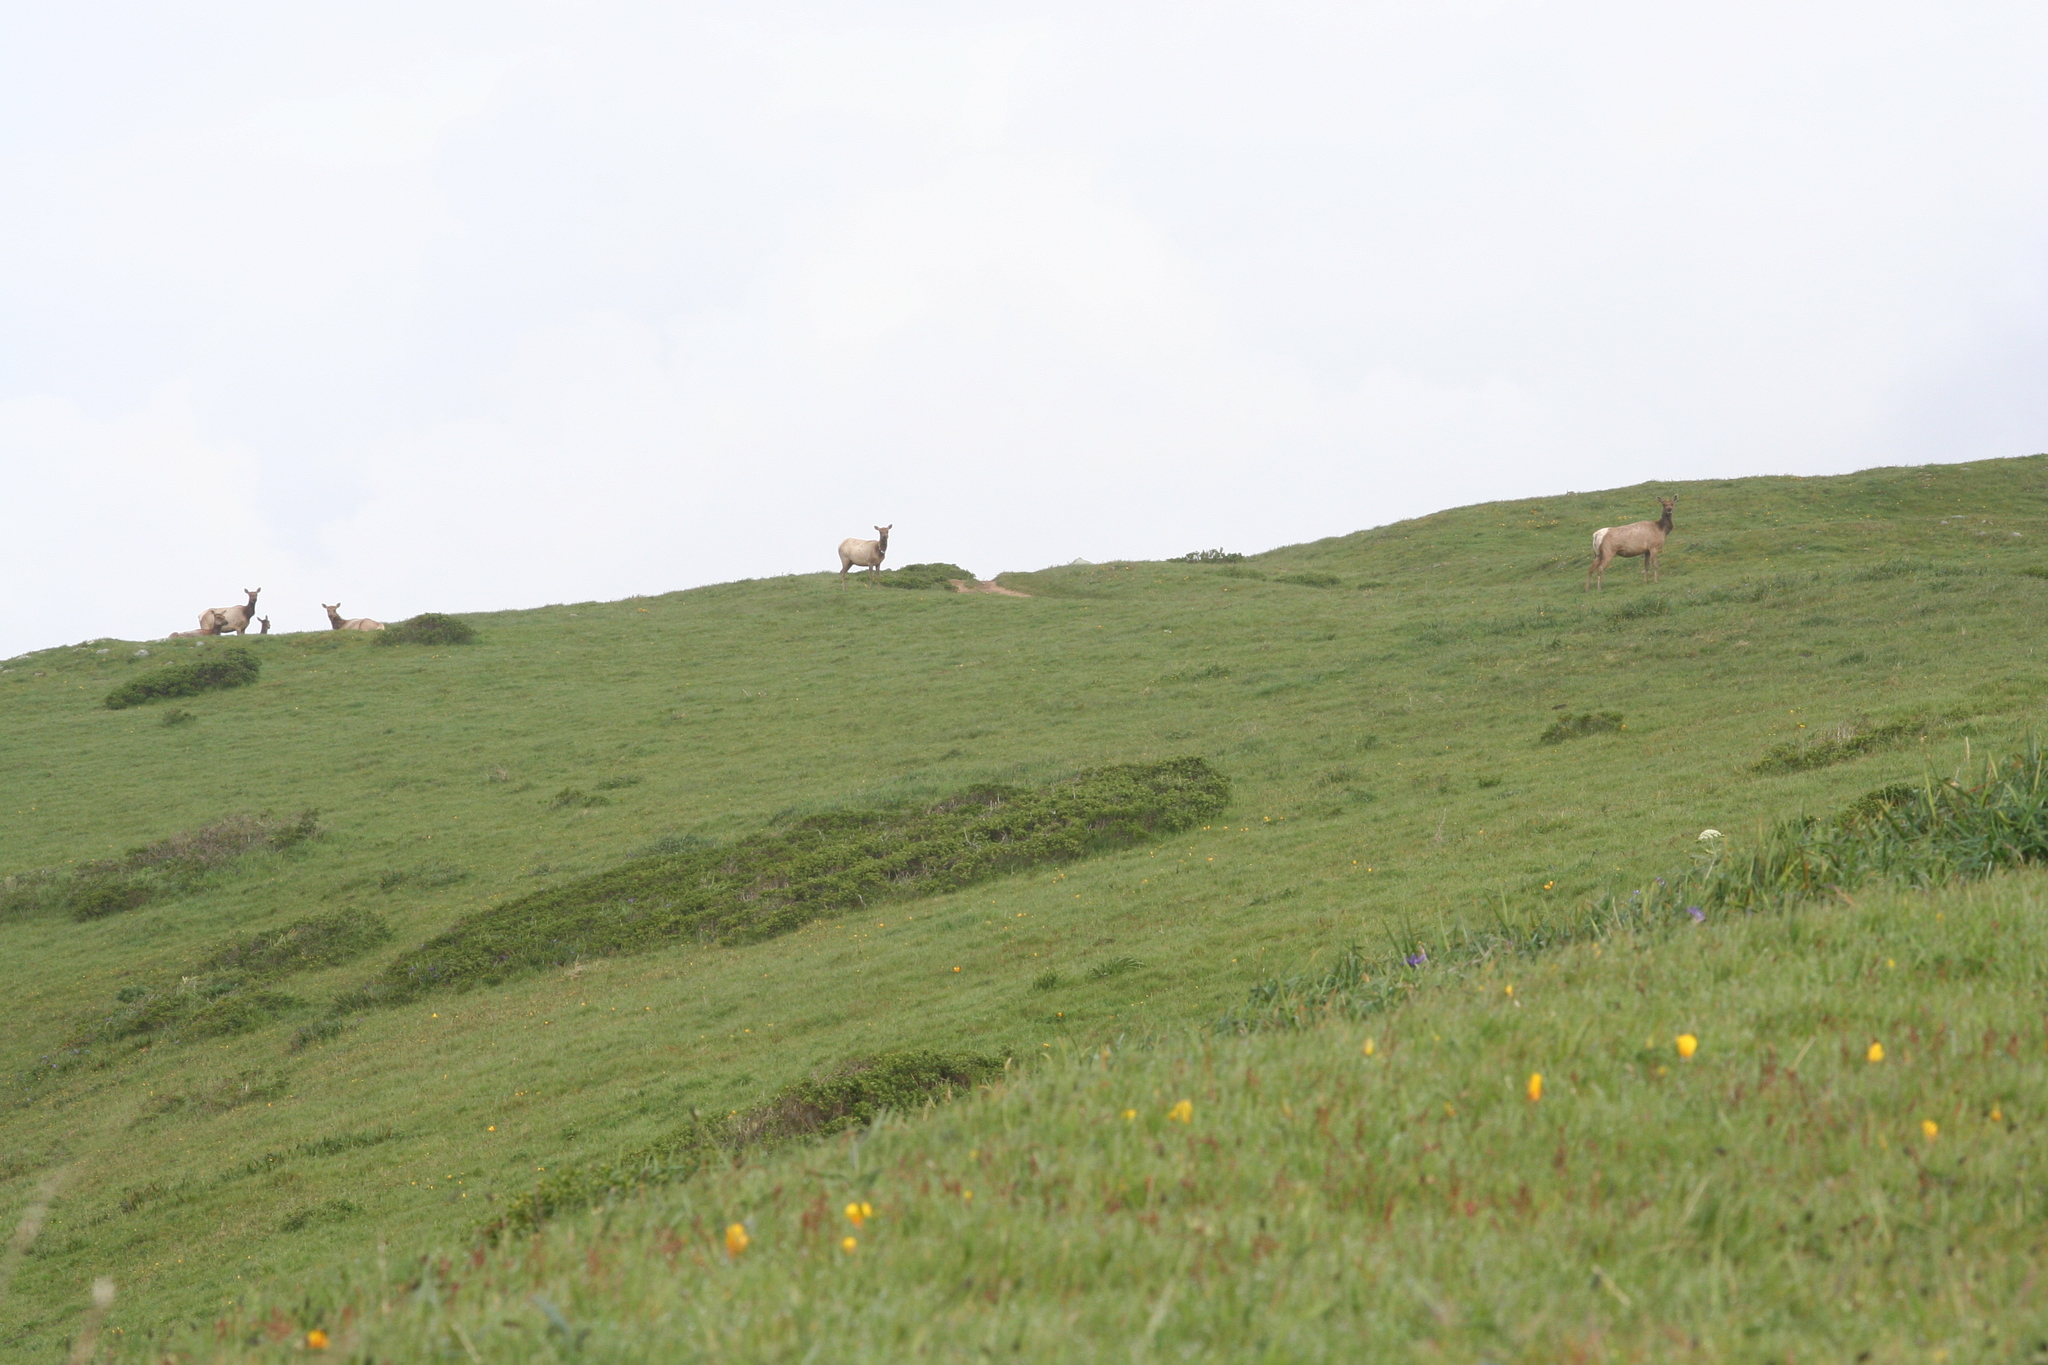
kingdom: Animalia
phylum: Chordata
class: Mammalia
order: Artiodactyla
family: Cervidae
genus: Cervus
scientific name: Cervus elaphus
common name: Red deer
